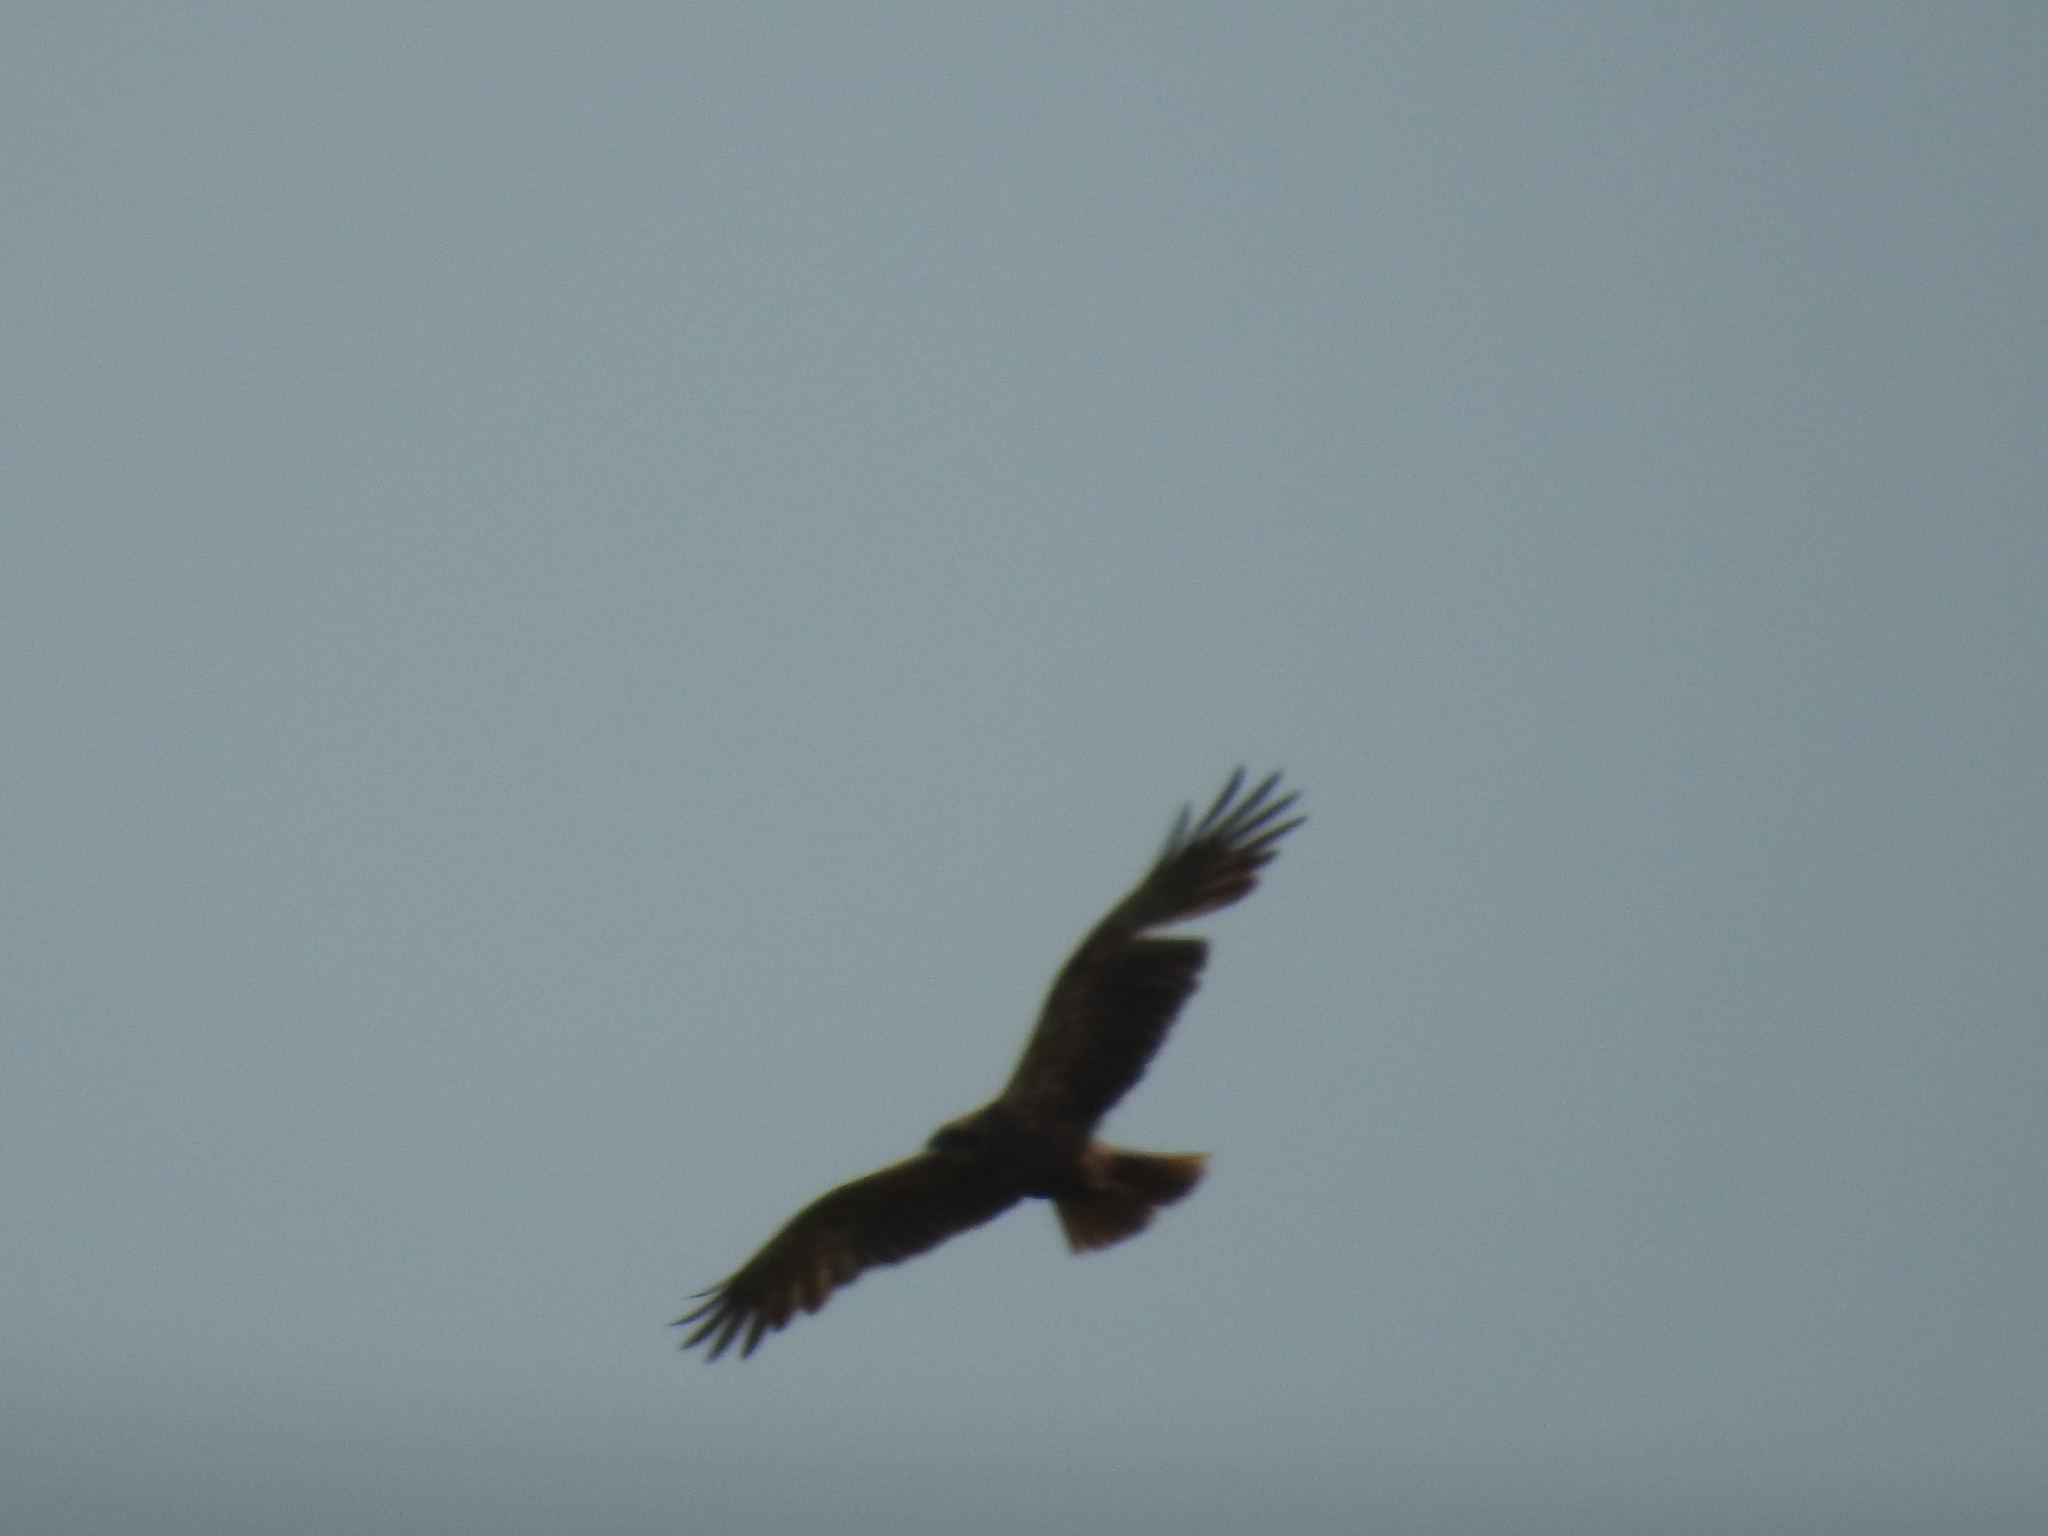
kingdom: Animalia
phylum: Chordata
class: Aves
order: Accipitriformes
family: Accipitridae
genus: Circus
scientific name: Circus aeruginosus
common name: Western marsh harrier
